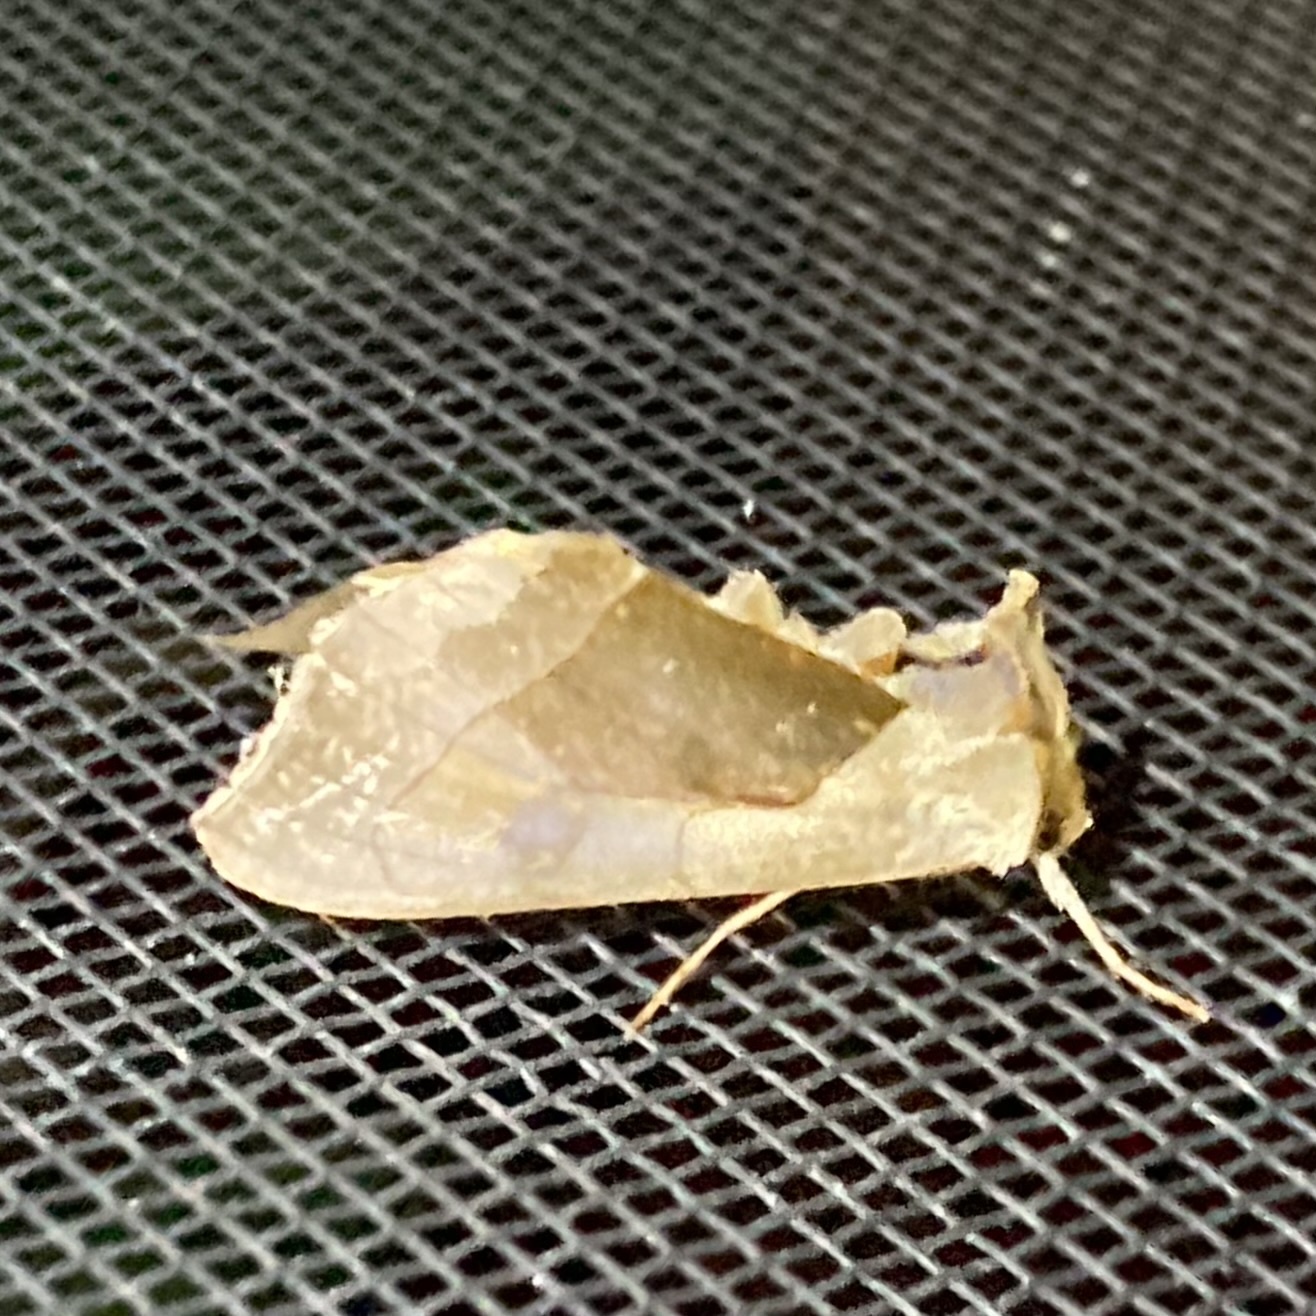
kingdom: Animalia
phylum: Arthropoda
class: Insecta
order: Lepidoptera
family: Noctuidae
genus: Diachrysia
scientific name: Diachrysia balluca
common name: Green-patched looper moth
